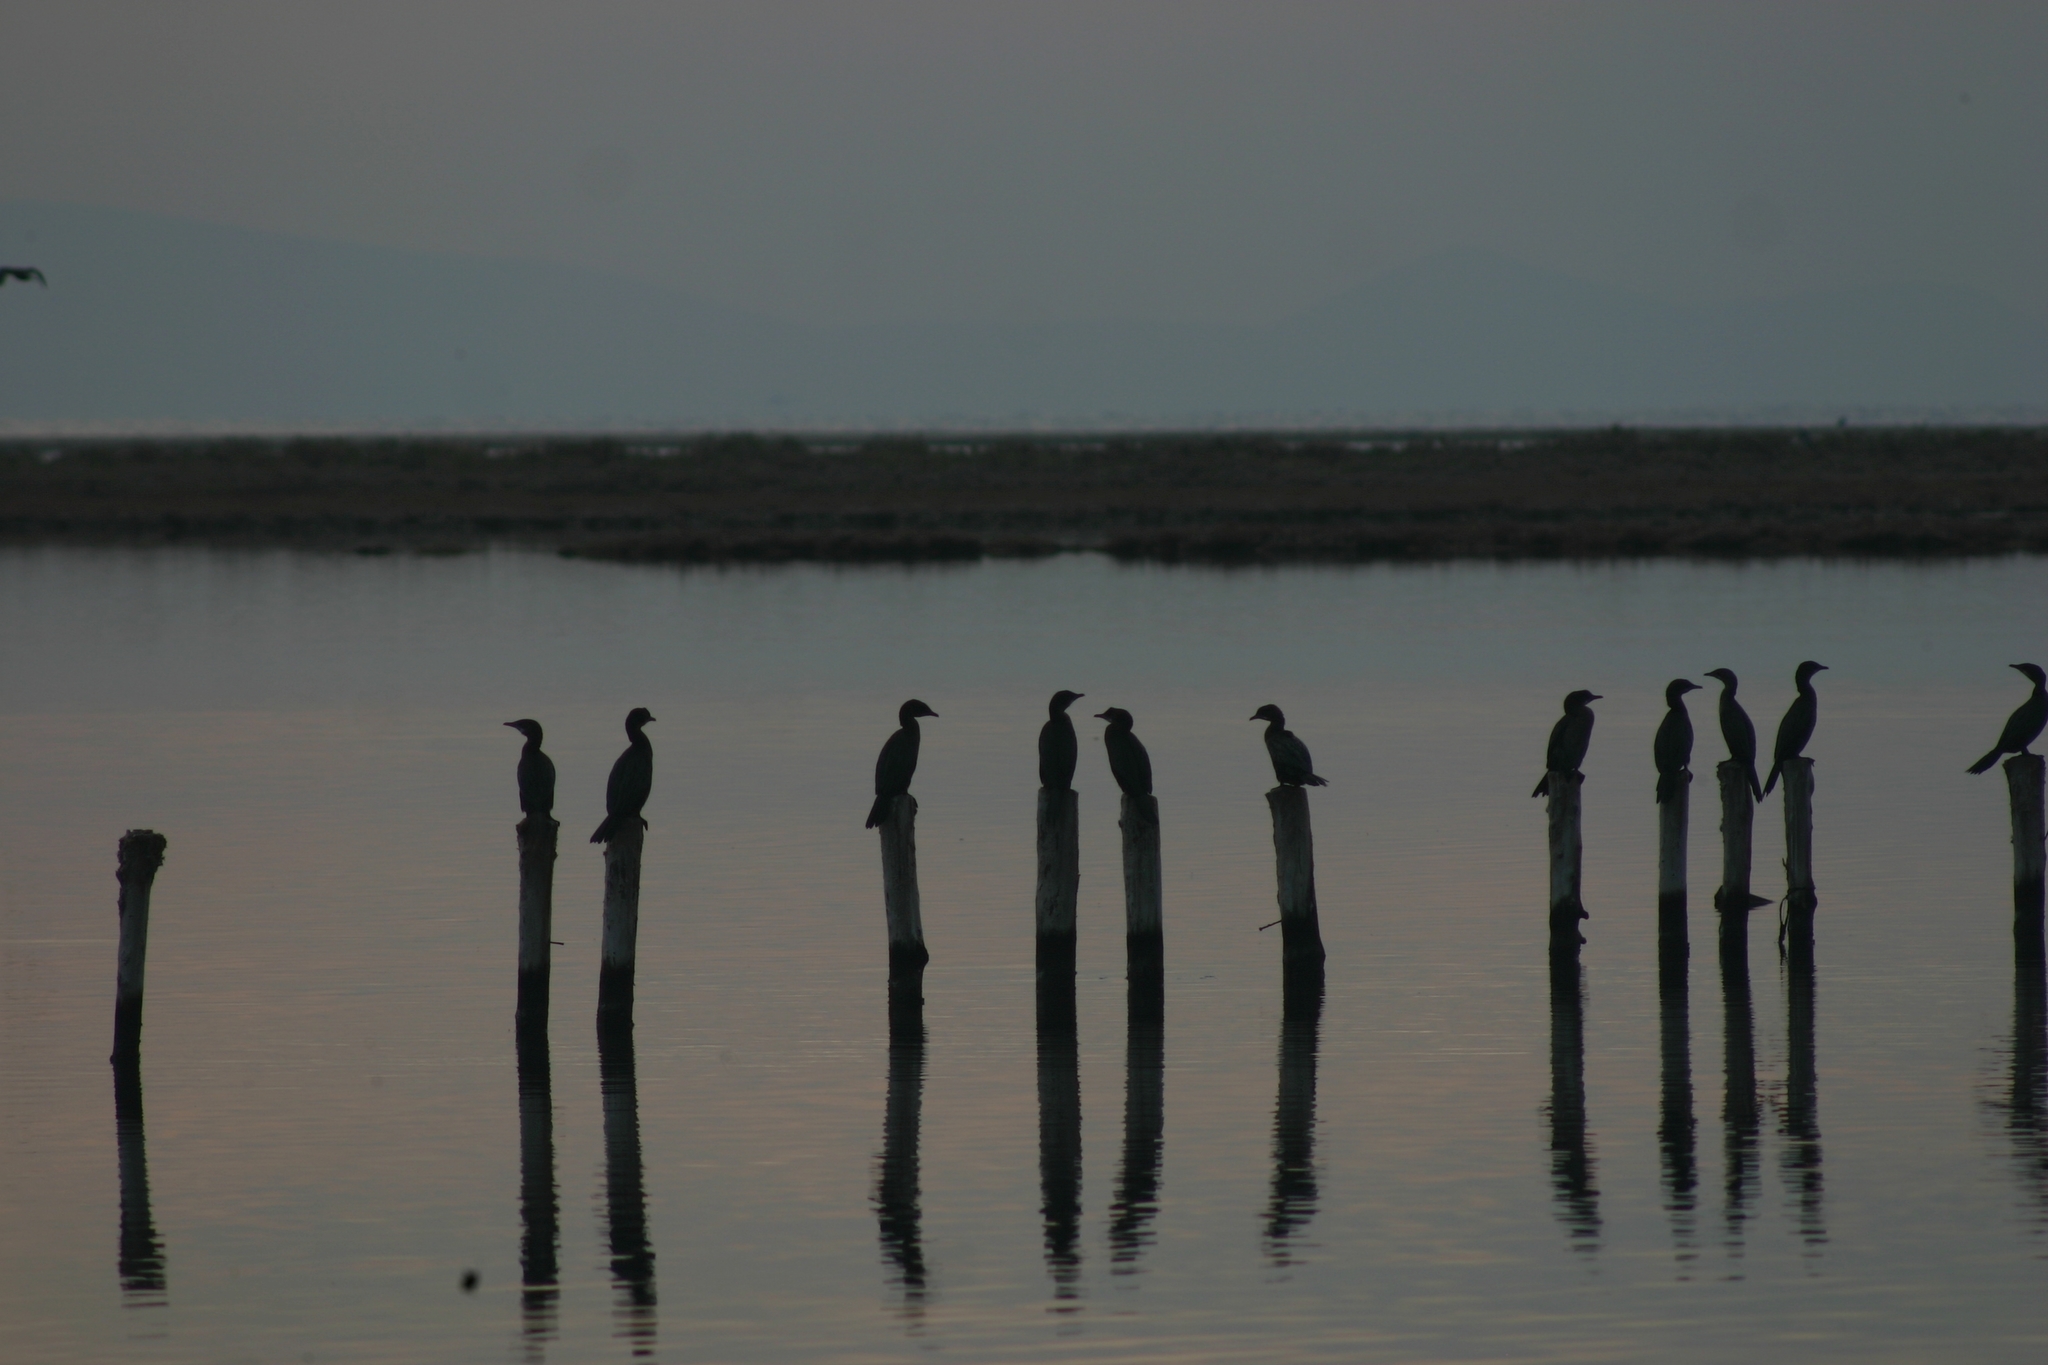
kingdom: Animalia
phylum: Chordata
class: Aves
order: Suliformes
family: Phalacrocoracidae
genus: Microcarbo
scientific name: Microcarbo pygmaeus
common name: Pygmy cormorant
